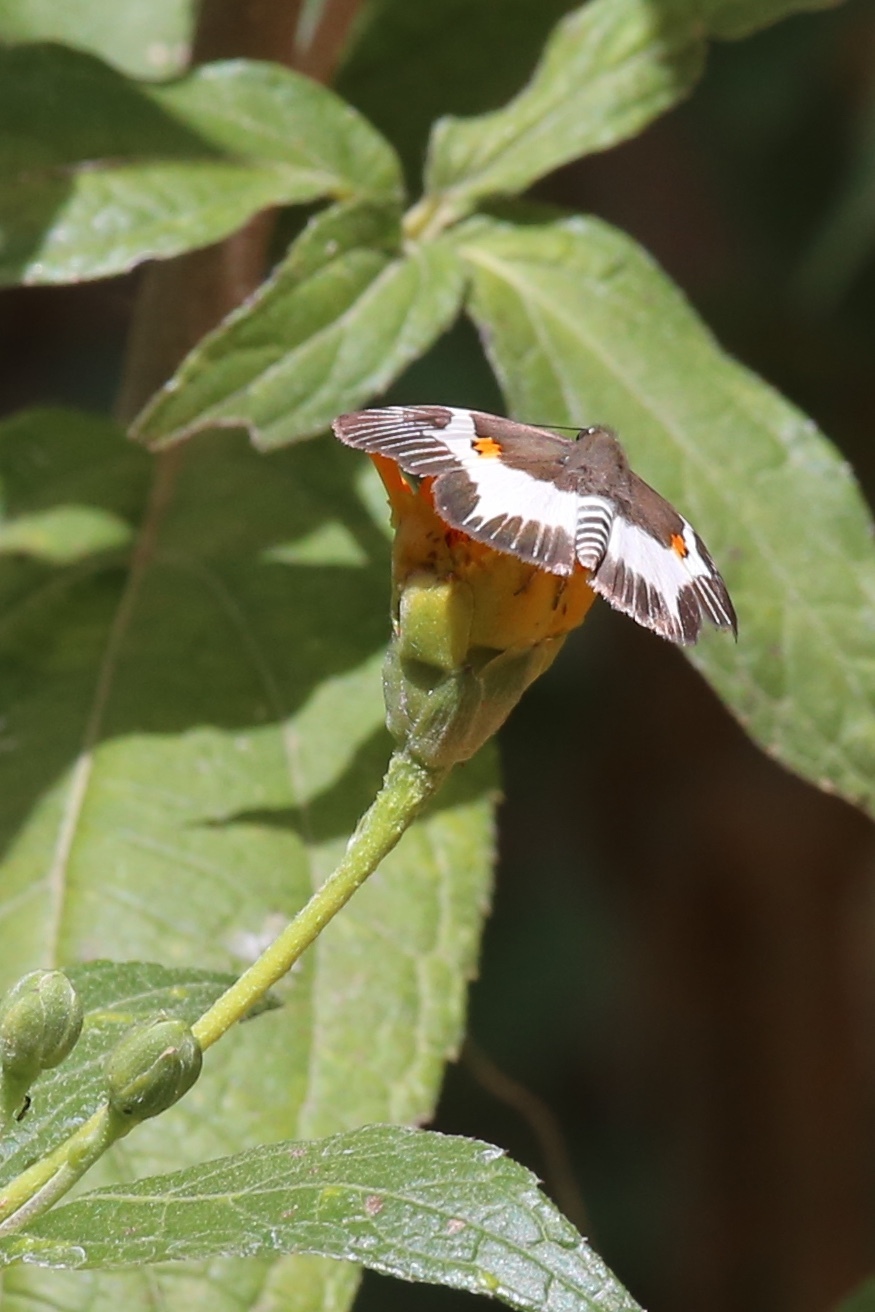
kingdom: Animalia
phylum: Arthropoda
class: Insecta
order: Lepidoptera
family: Hesperiidae
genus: Atarnes
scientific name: Atarnes sallei
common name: Orange-spotted skipper
